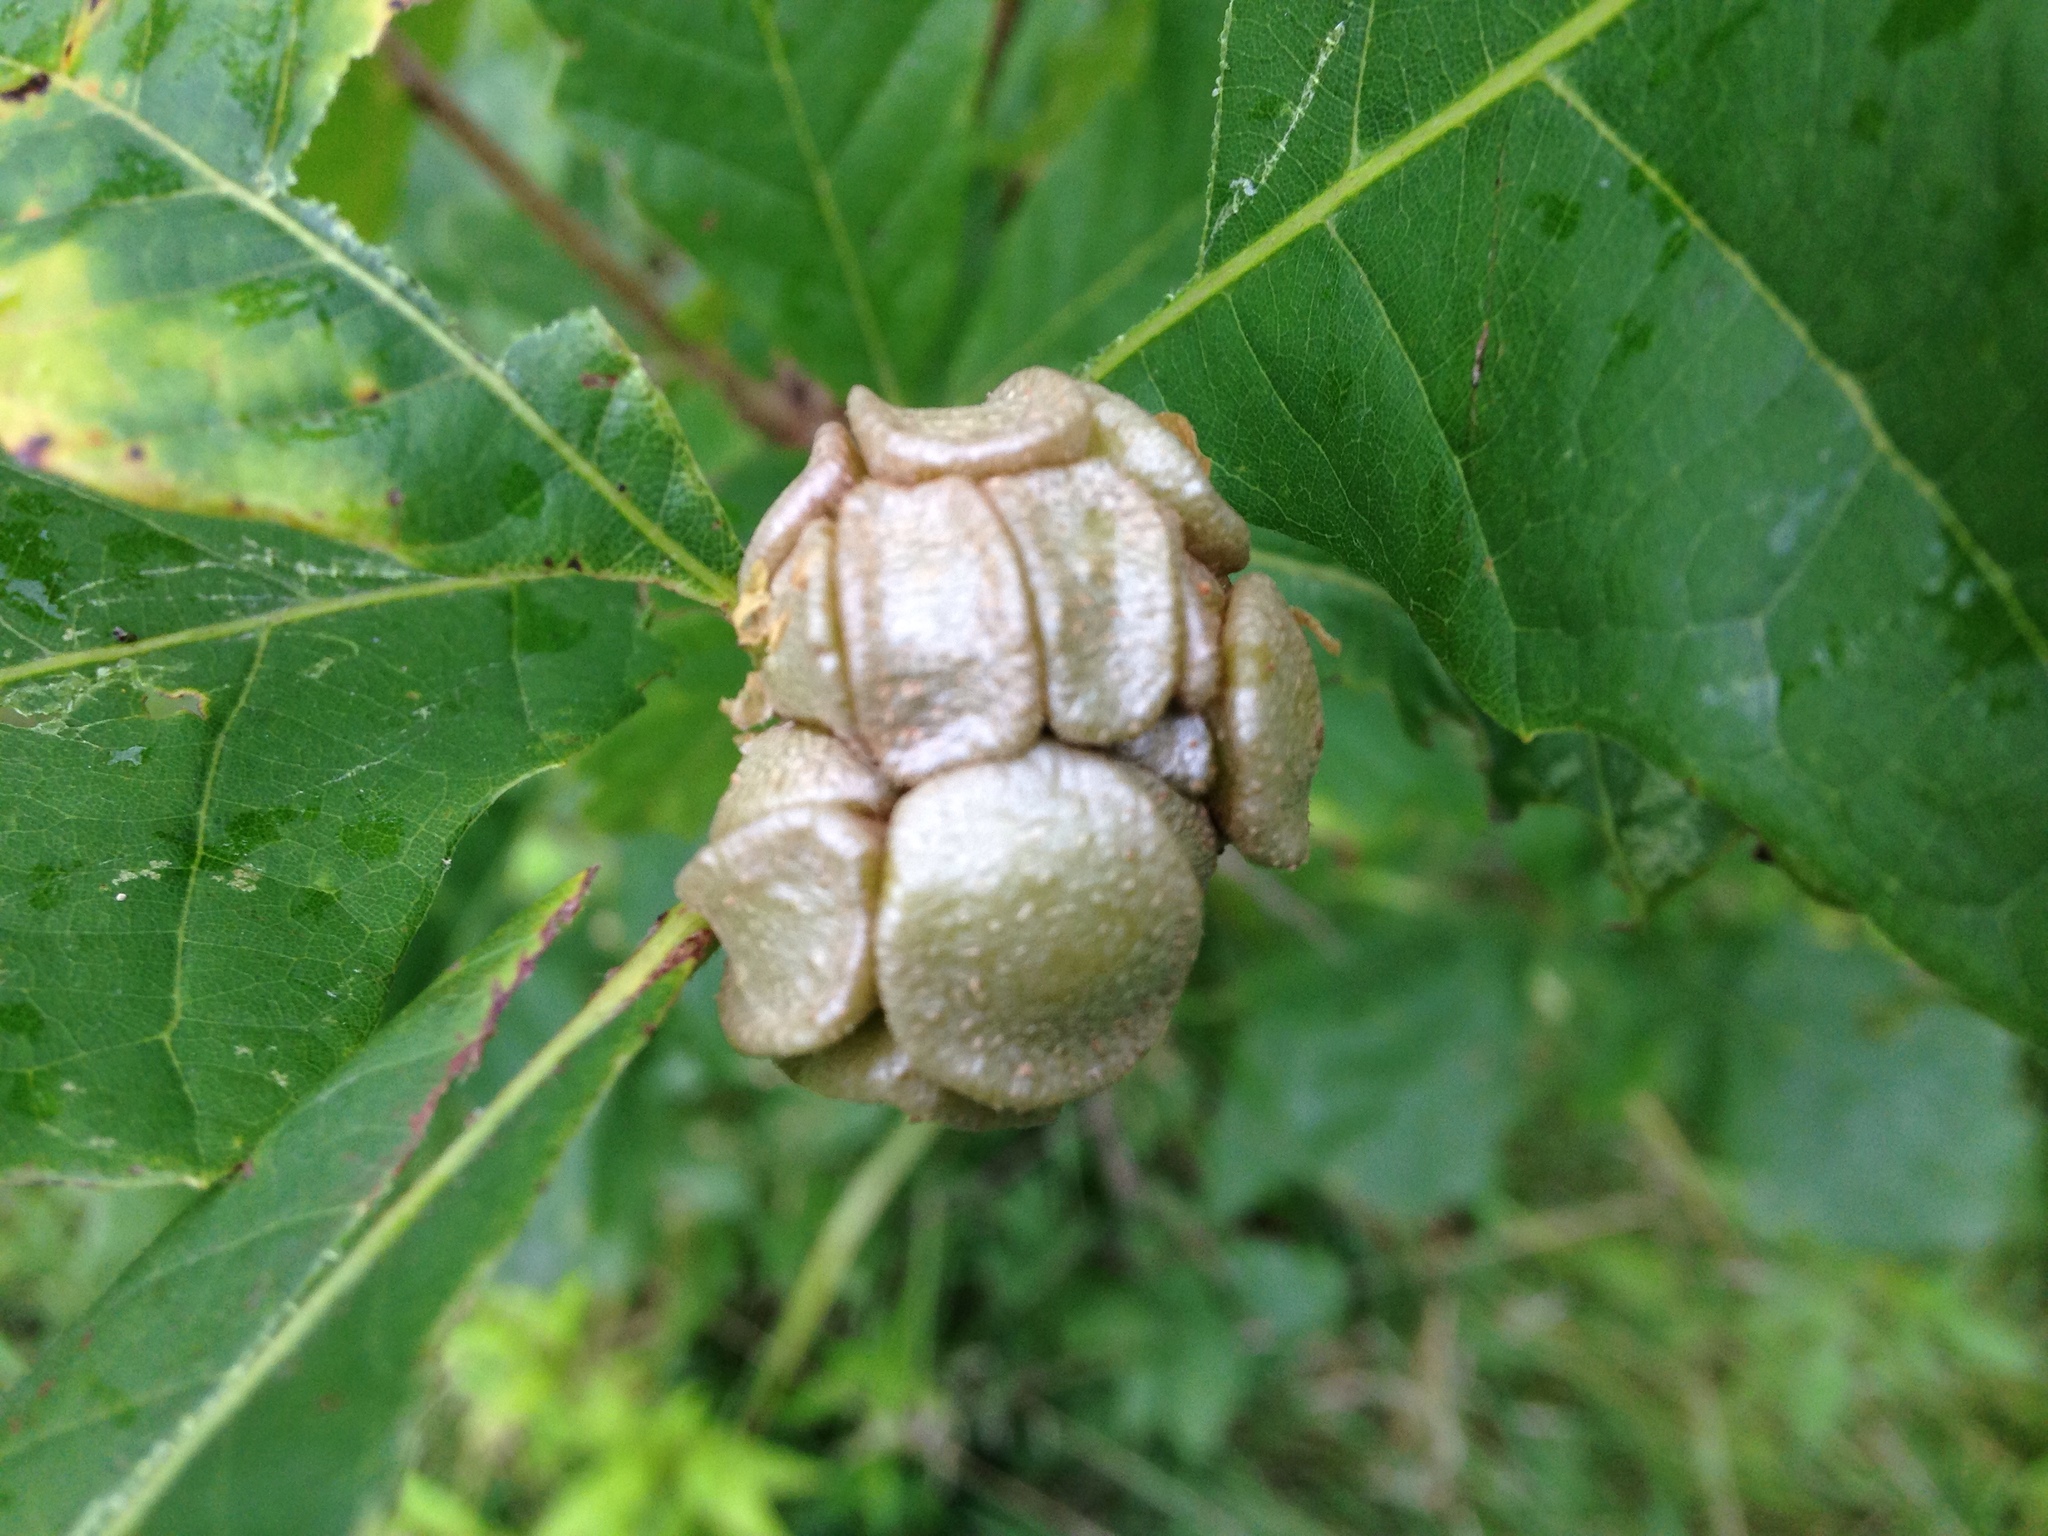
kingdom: Animalia
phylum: Arthropoda
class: Insecta
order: Hymenoptera
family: Cynipidae
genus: Andricus
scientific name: Andricus
